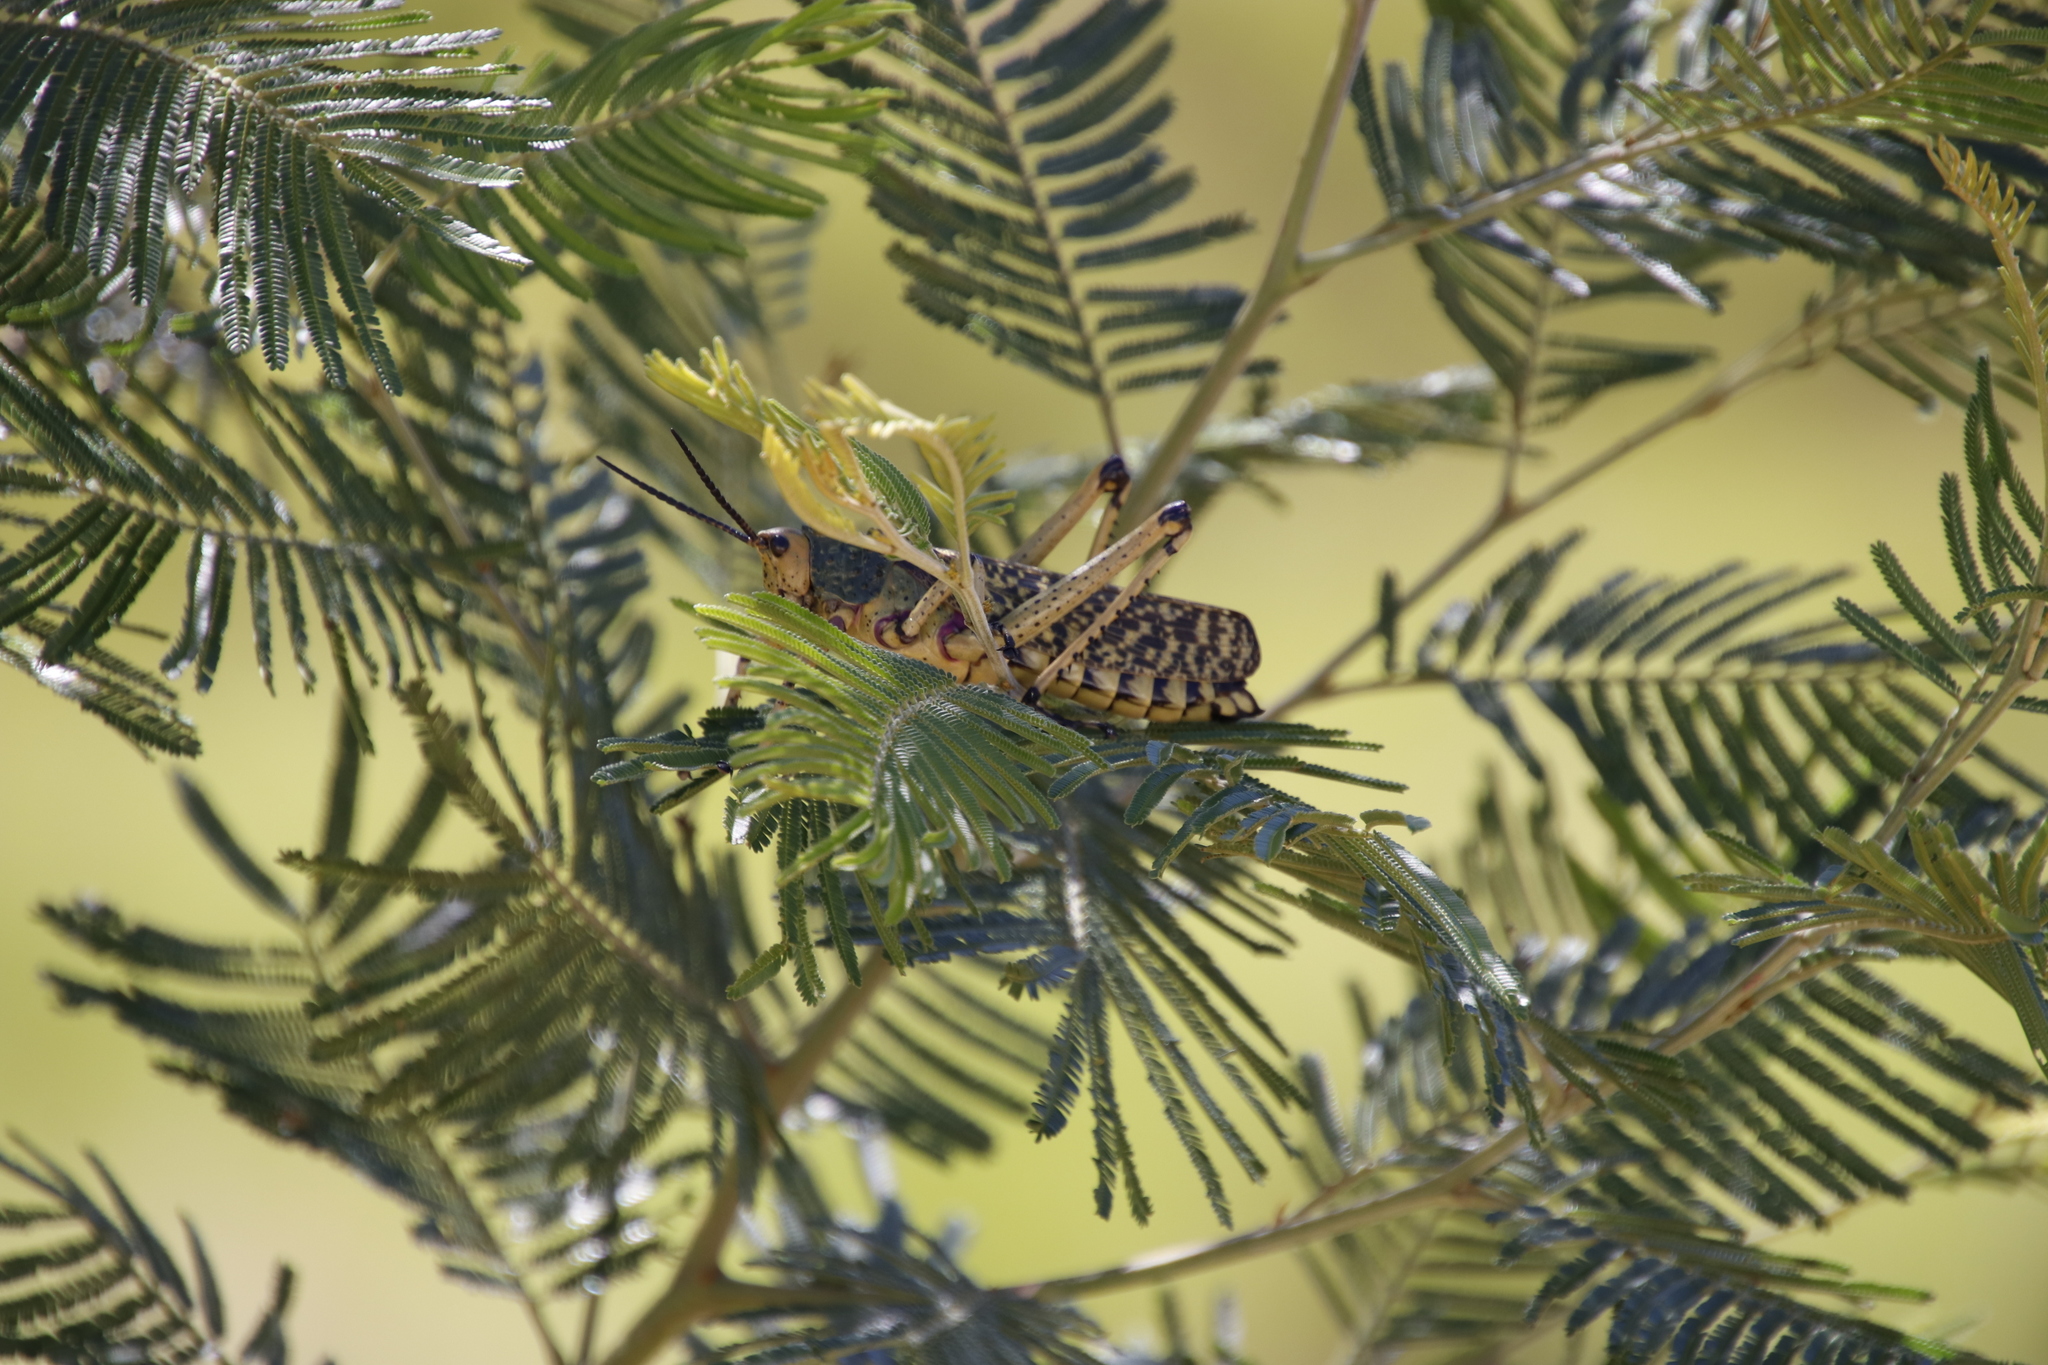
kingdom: Animalia
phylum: Arthropoda
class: Insecta
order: Orthoptera
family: Pyrgomorphidae
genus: Phymateus
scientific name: Phymateus leprosus
